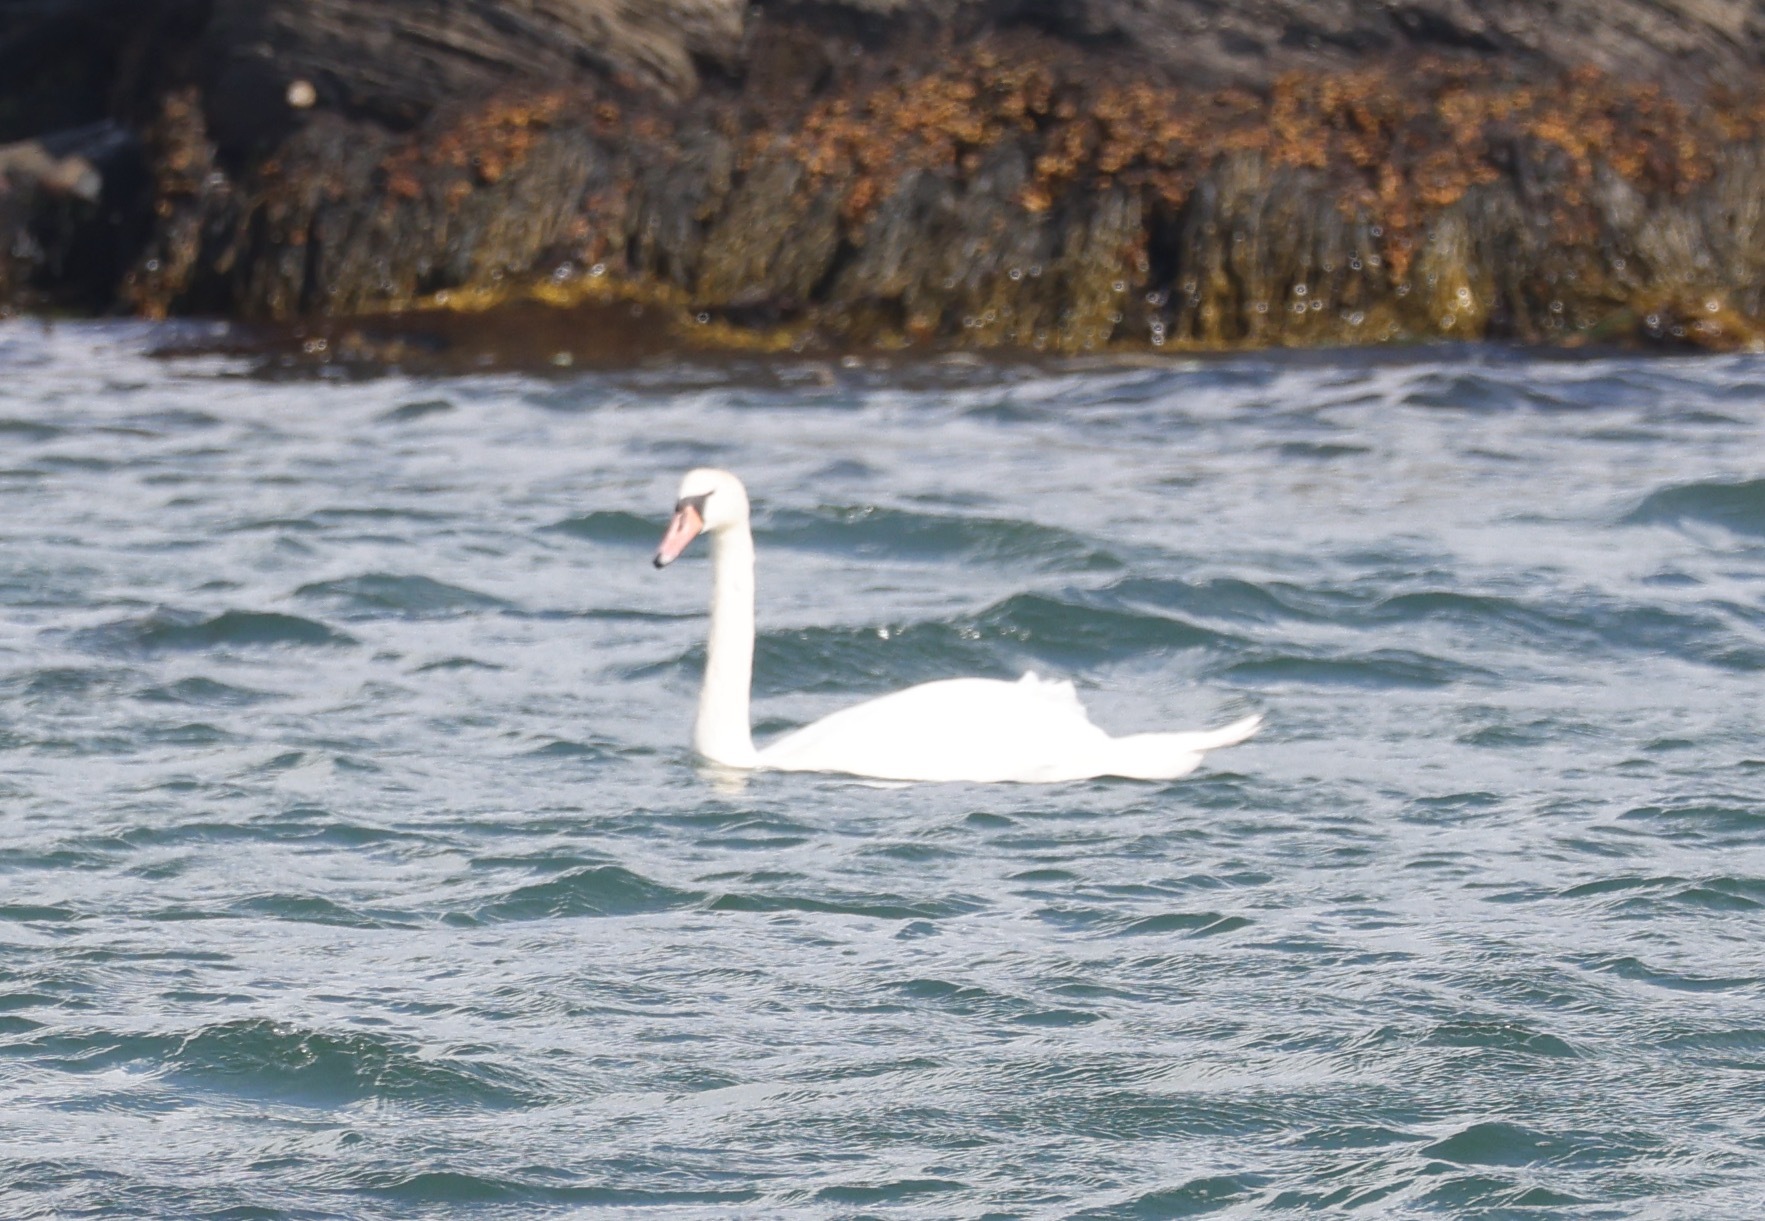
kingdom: Animalia
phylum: Chordata
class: Aves
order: Anseriformes
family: Anatidae
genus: Cygnus
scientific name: Cygnus olor
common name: Mute swan
